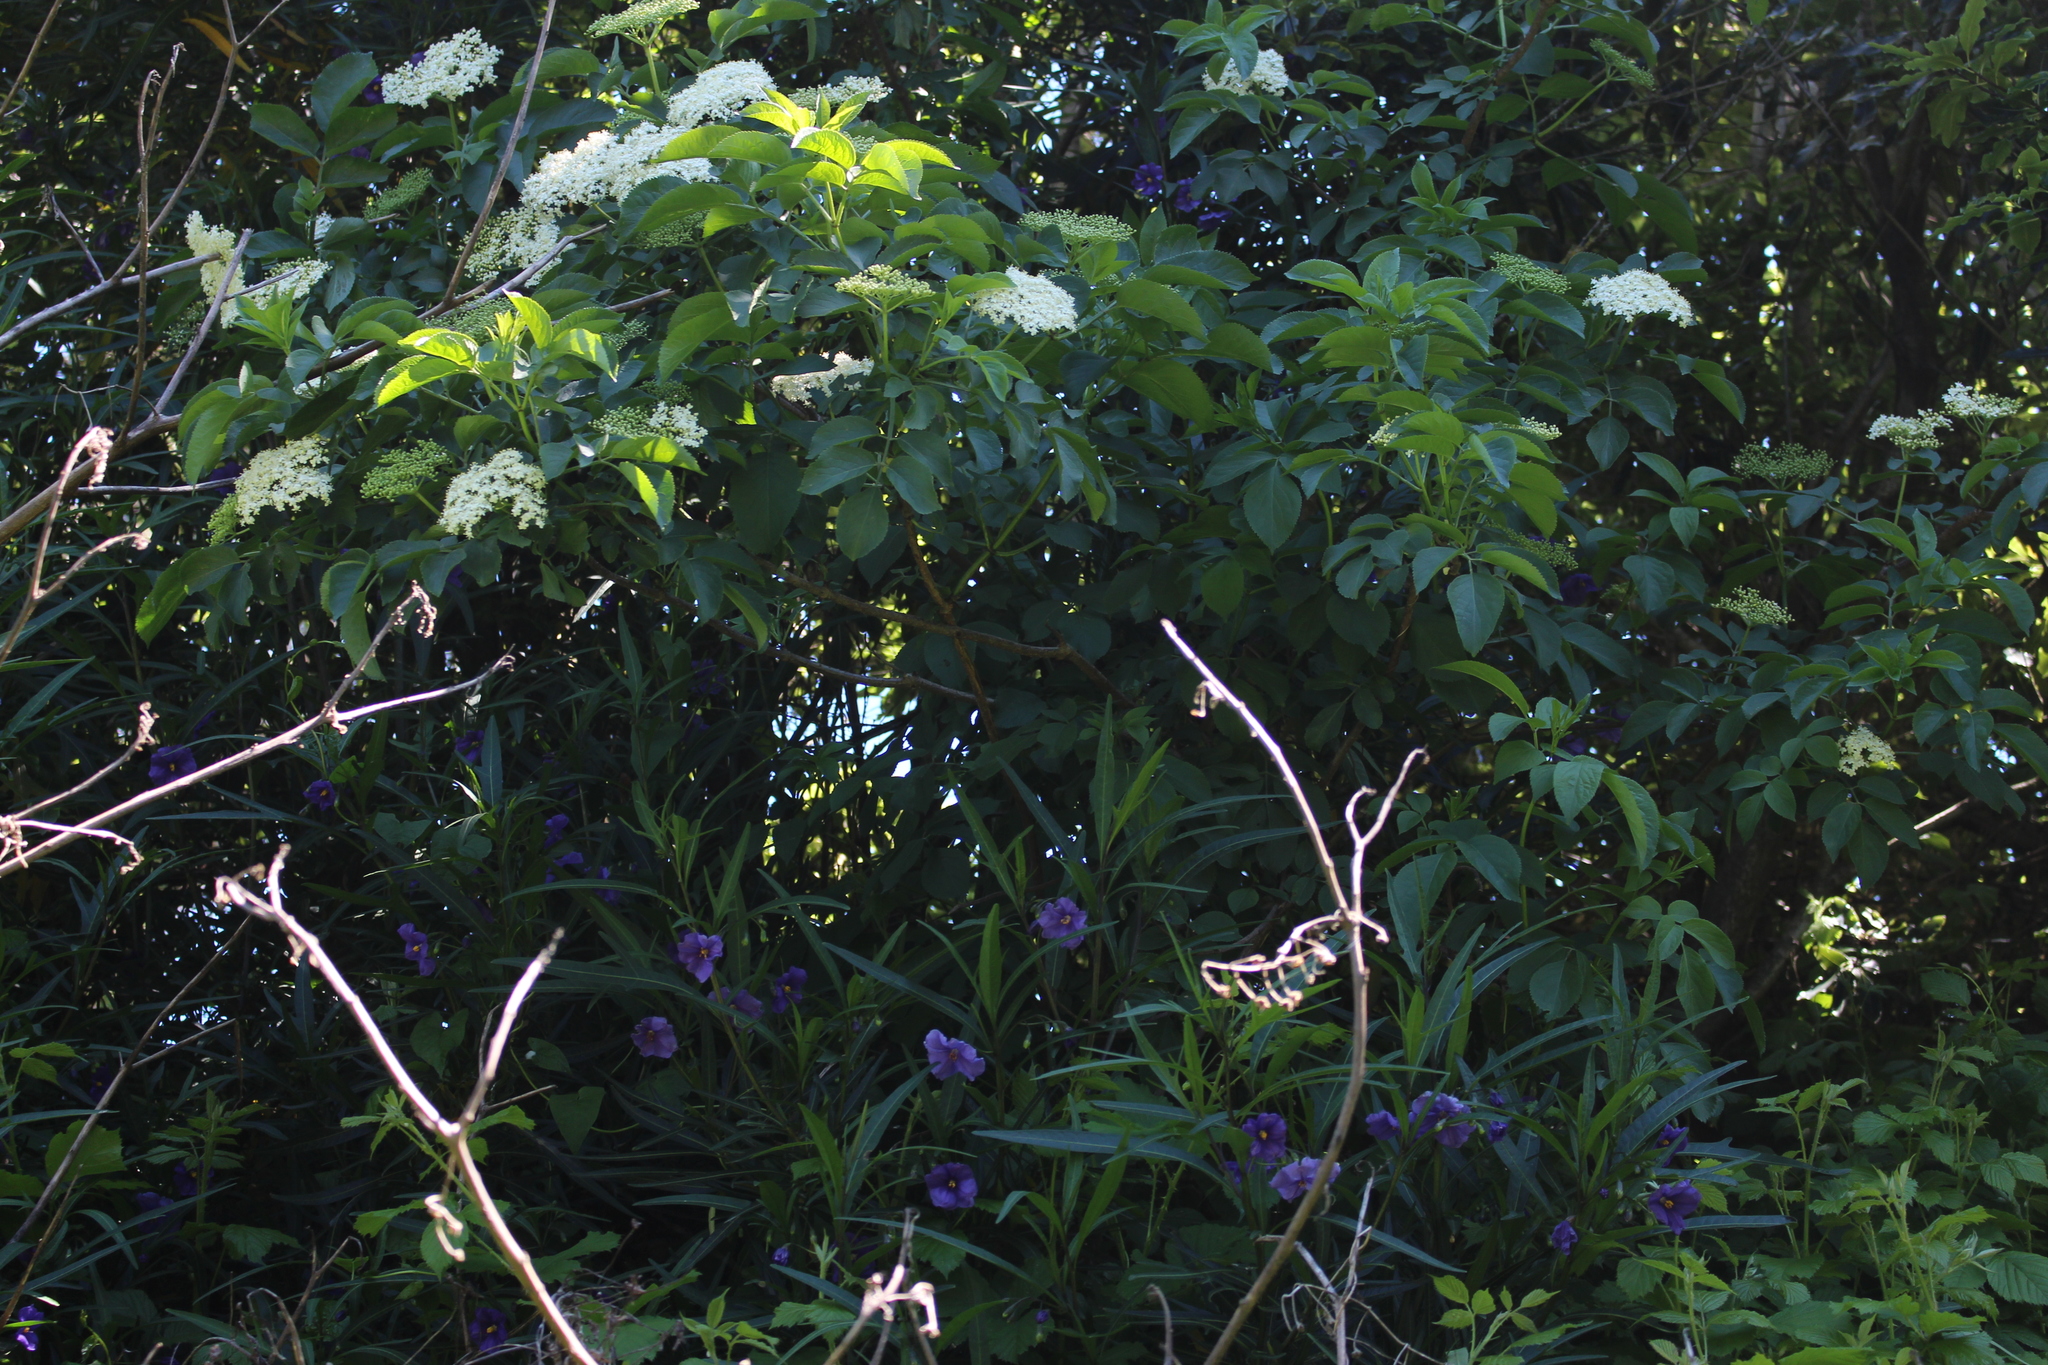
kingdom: Plantae
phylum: Tracheophyta
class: Magnoliopsida
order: Dipsacales
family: Viburnaceae
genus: Sambucus
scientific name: Sambucus nigra
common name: Elder
